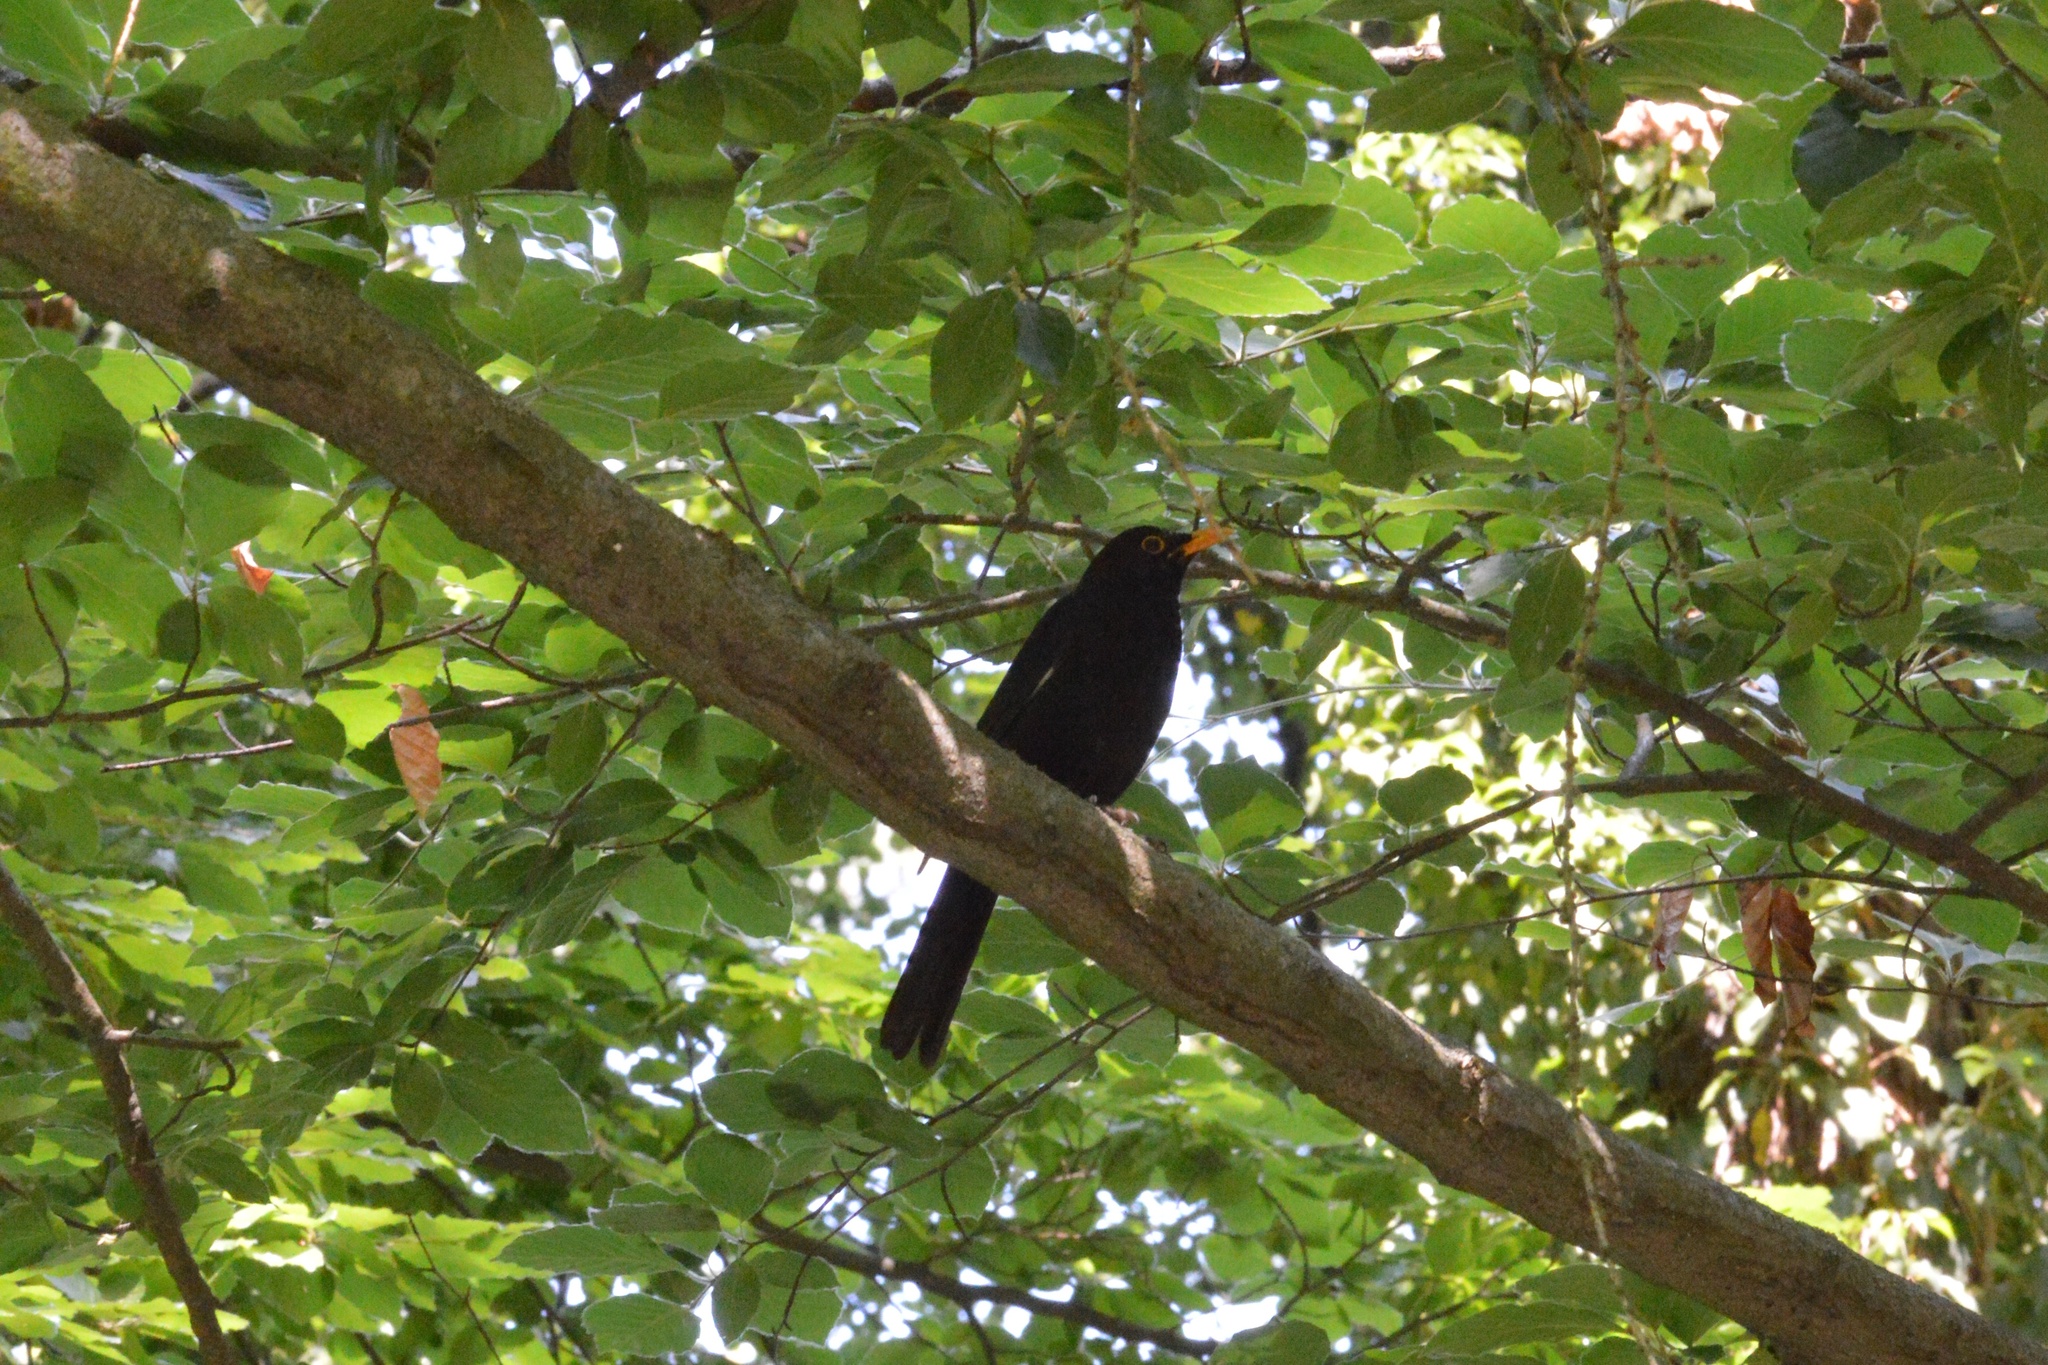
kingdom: Animalia
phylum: Chordata
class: Aves
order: Passeriformes
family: Turdidae
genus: Turdus
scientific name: Turdus merula
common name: Common blackbird
